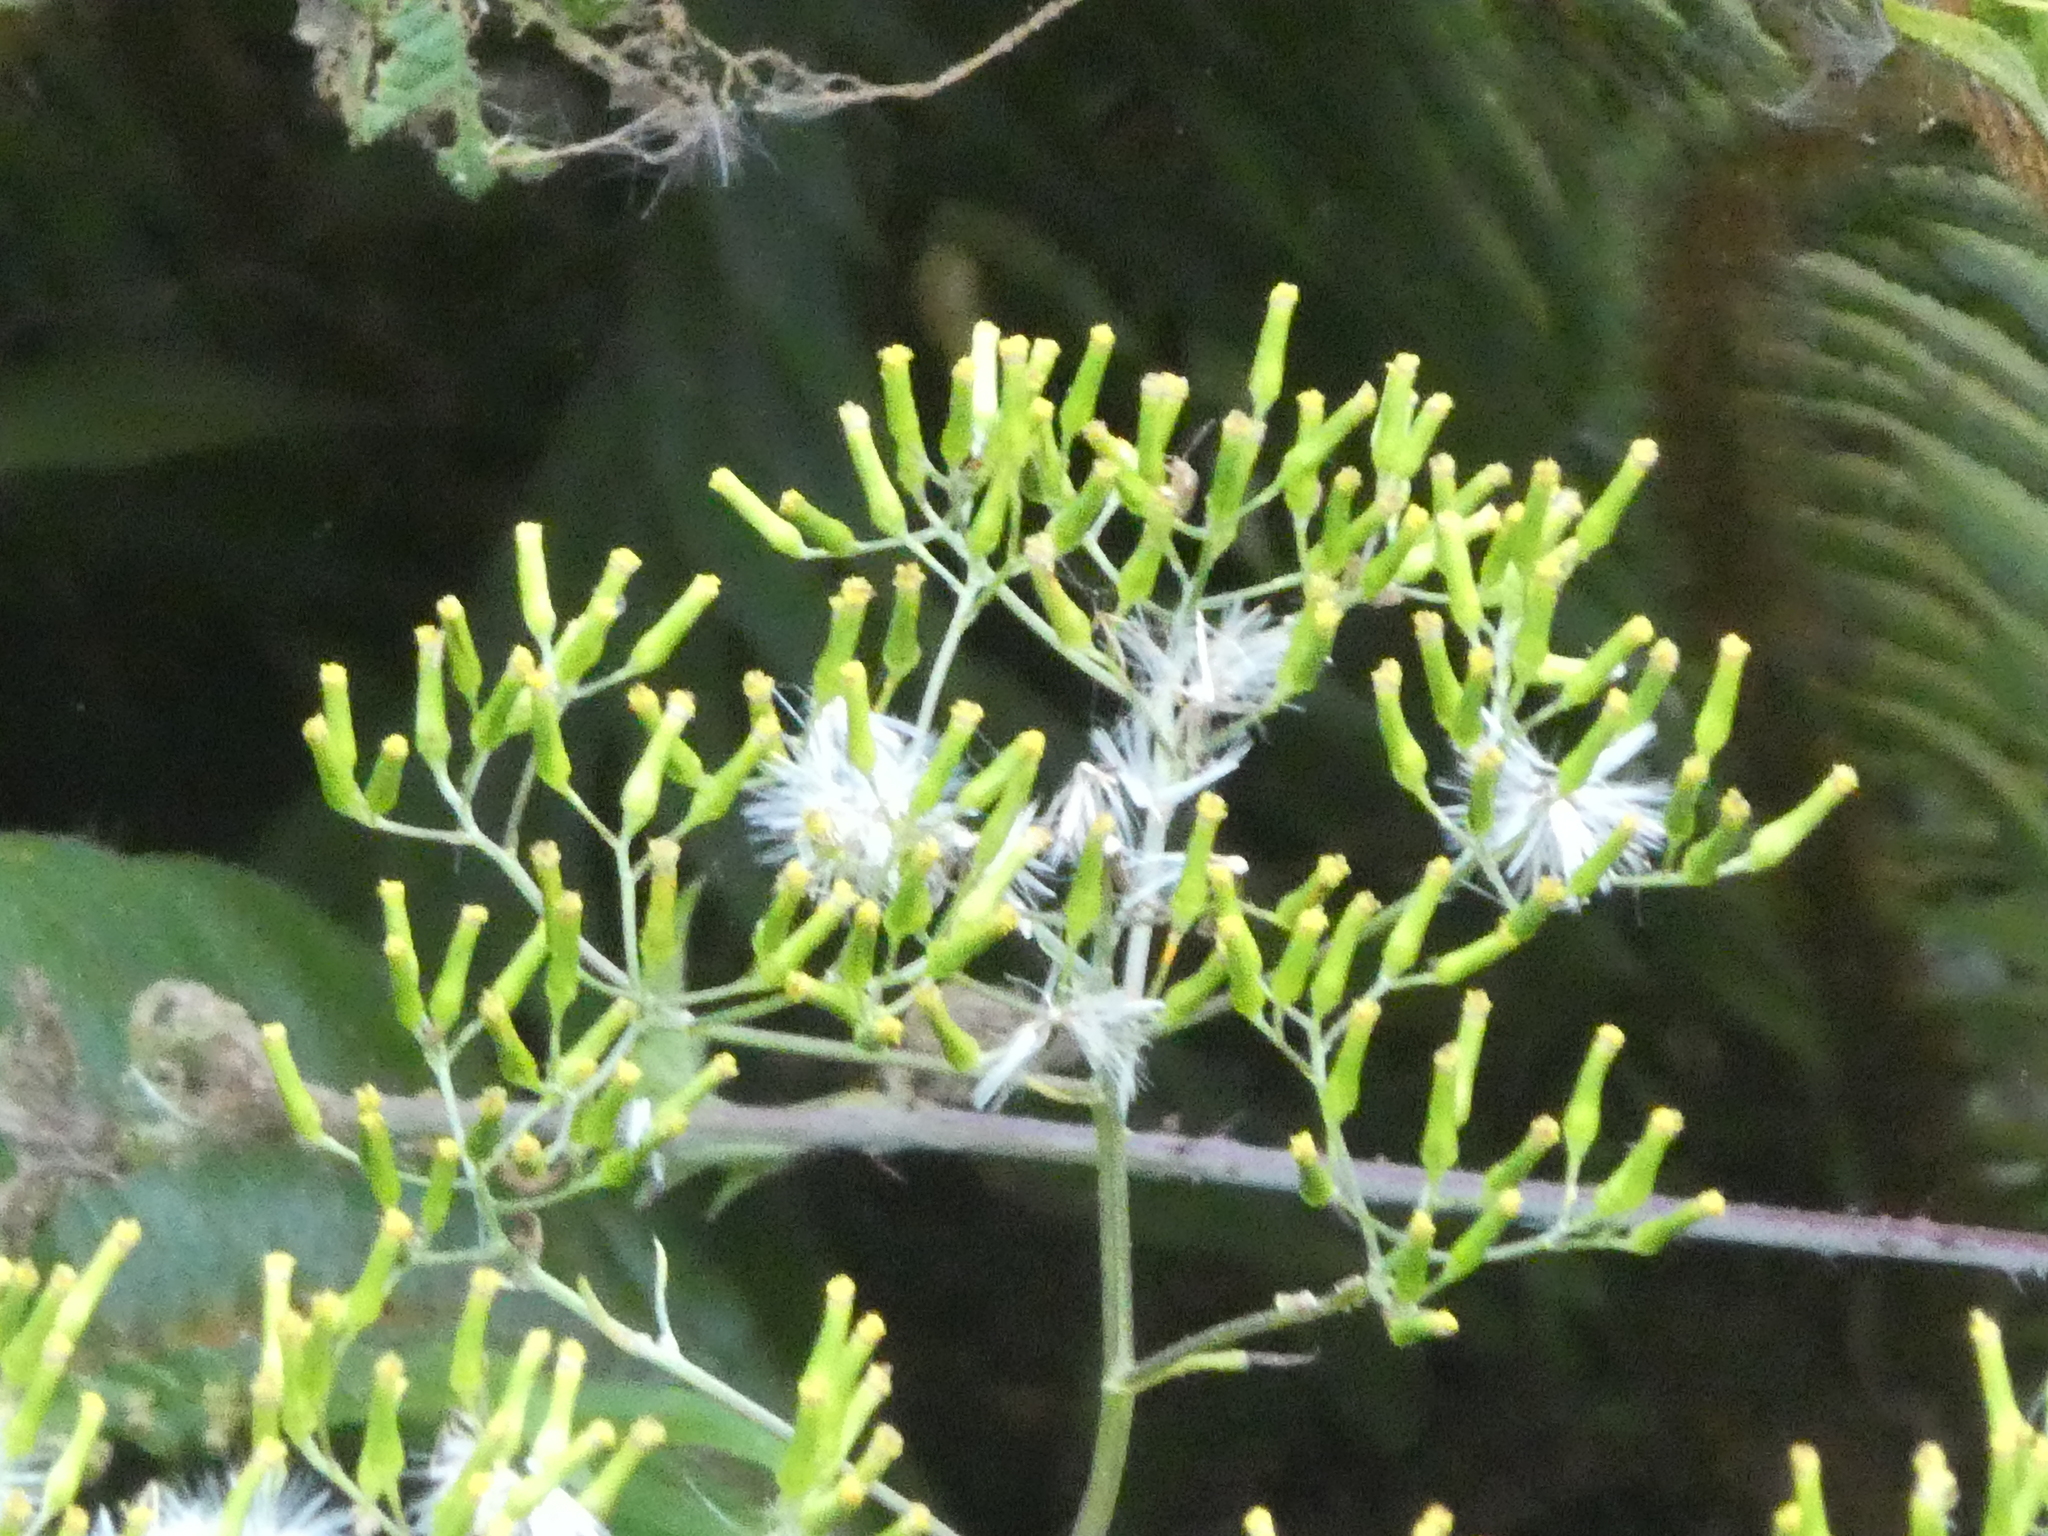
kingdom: Plantae
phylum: Tracheophyta
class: Magnoliopsida
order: Asterales
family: Asteraceae
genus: Senecio
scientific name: Senecio minimus
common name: Toothed fireweed
